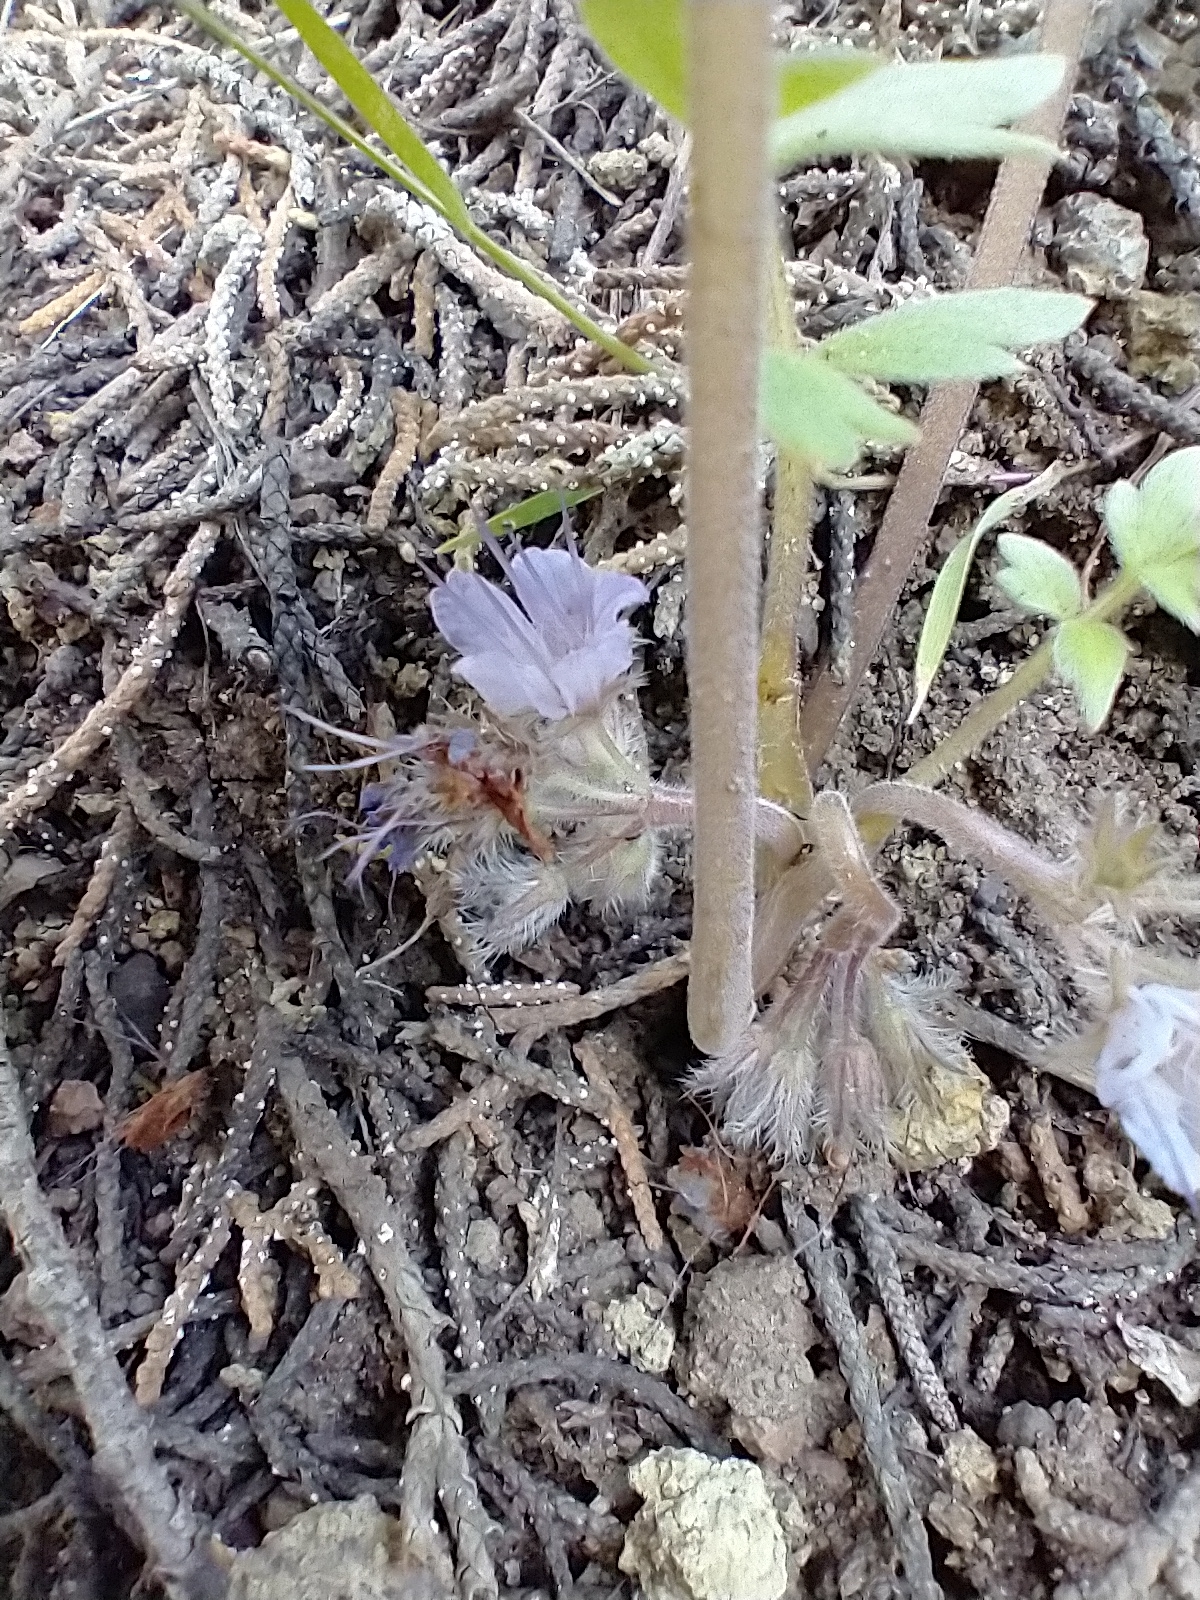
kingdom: Plantae
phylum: Tracheophyta
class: Magnoliopsida
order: Boraginales
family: Hydrophyllaceae
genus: Hydrophyllum
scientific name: Hydrophyllum alpestre
